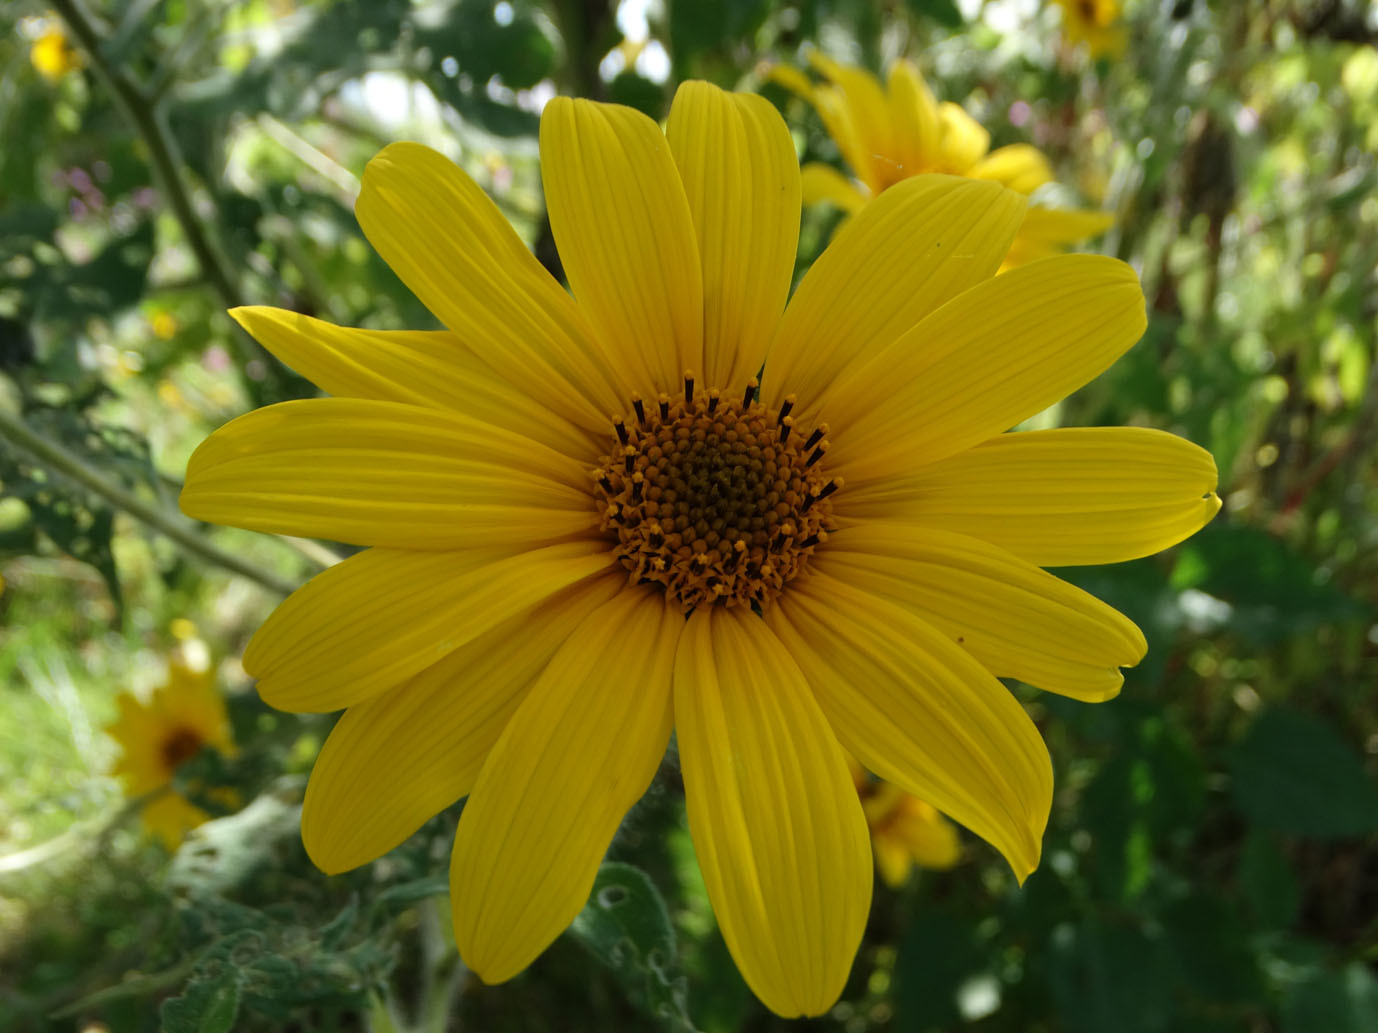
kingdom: Plantae
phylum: Tracheophyta
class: Magnoliopsida
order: Asterales
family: Asteraceae
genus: Tithonia
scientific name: Tithonia tubaeformis
